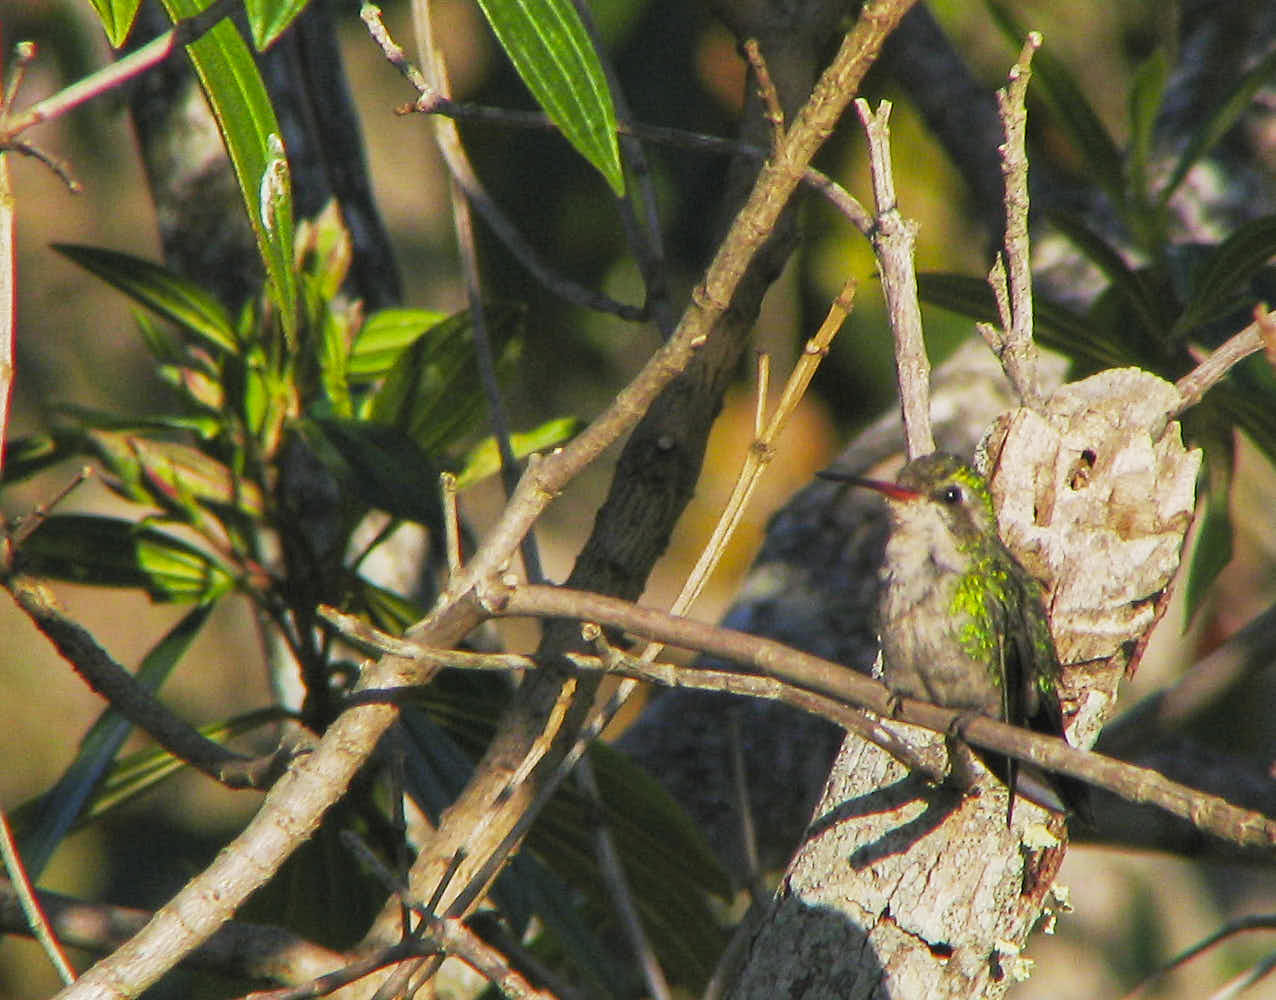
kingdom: Animalia
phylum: Chordata
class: Aves
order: Apodiformes
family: Trochilidae
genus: Chlorostilbon
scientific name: Chlorostilbon lucidus
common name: Glittering-bellied emerald
